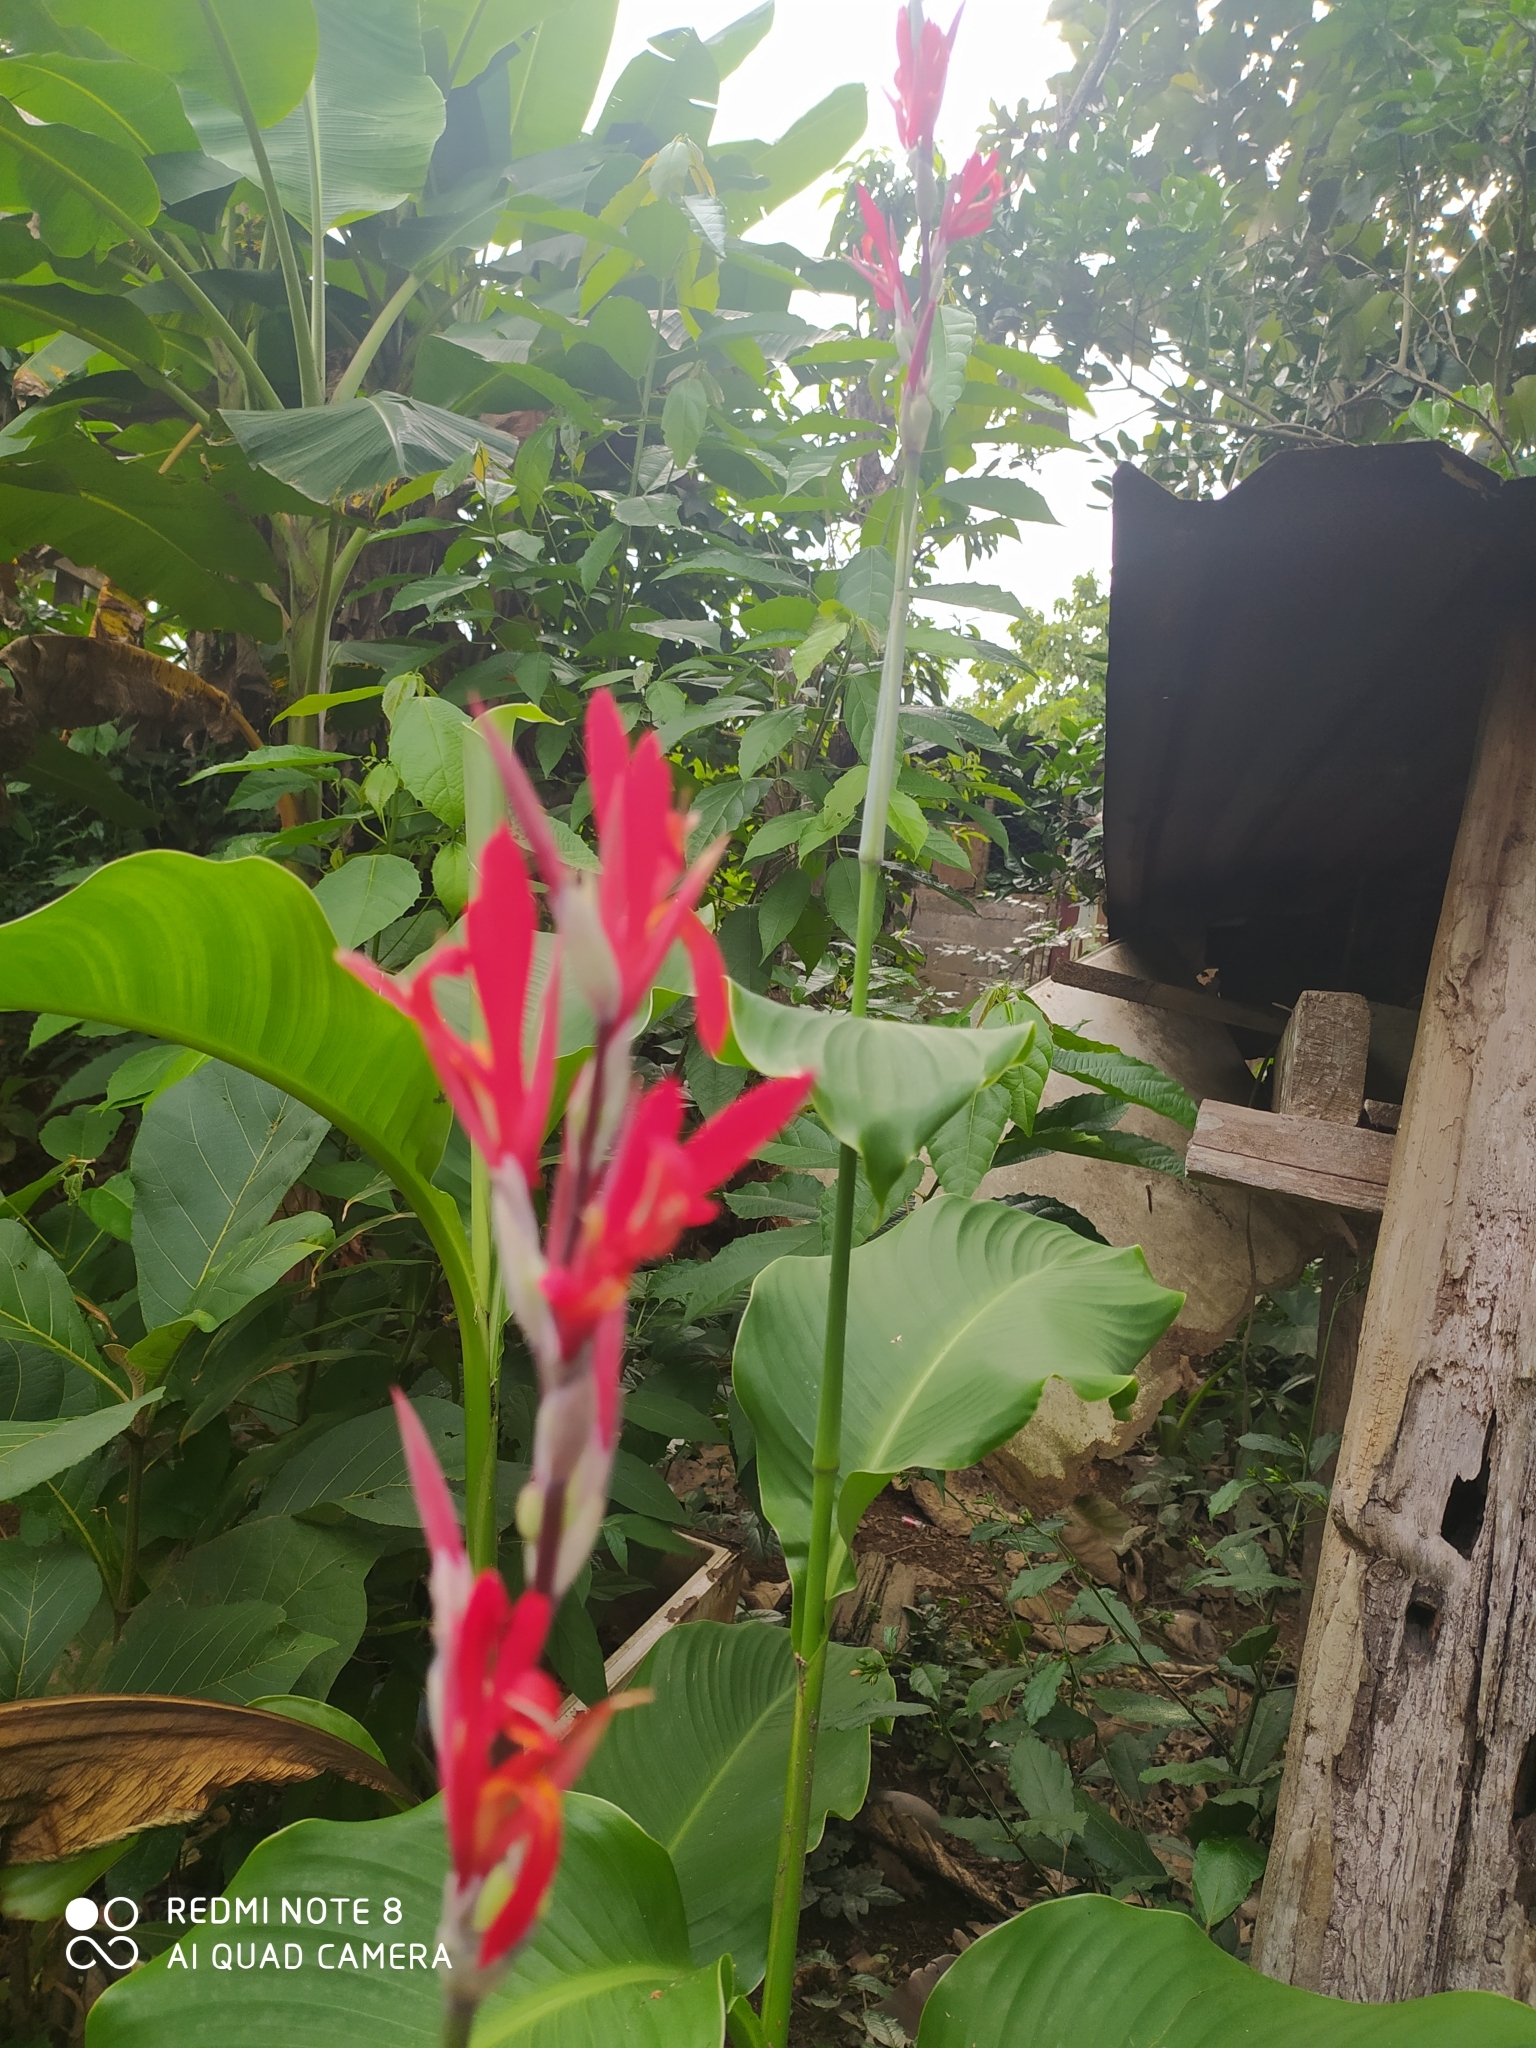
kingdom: Plantae
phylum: Tracheophyta
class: Liliopsida
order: Zingiberales
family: Cannaceae
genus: Canna
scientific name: Canna indica
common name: Indian shot
